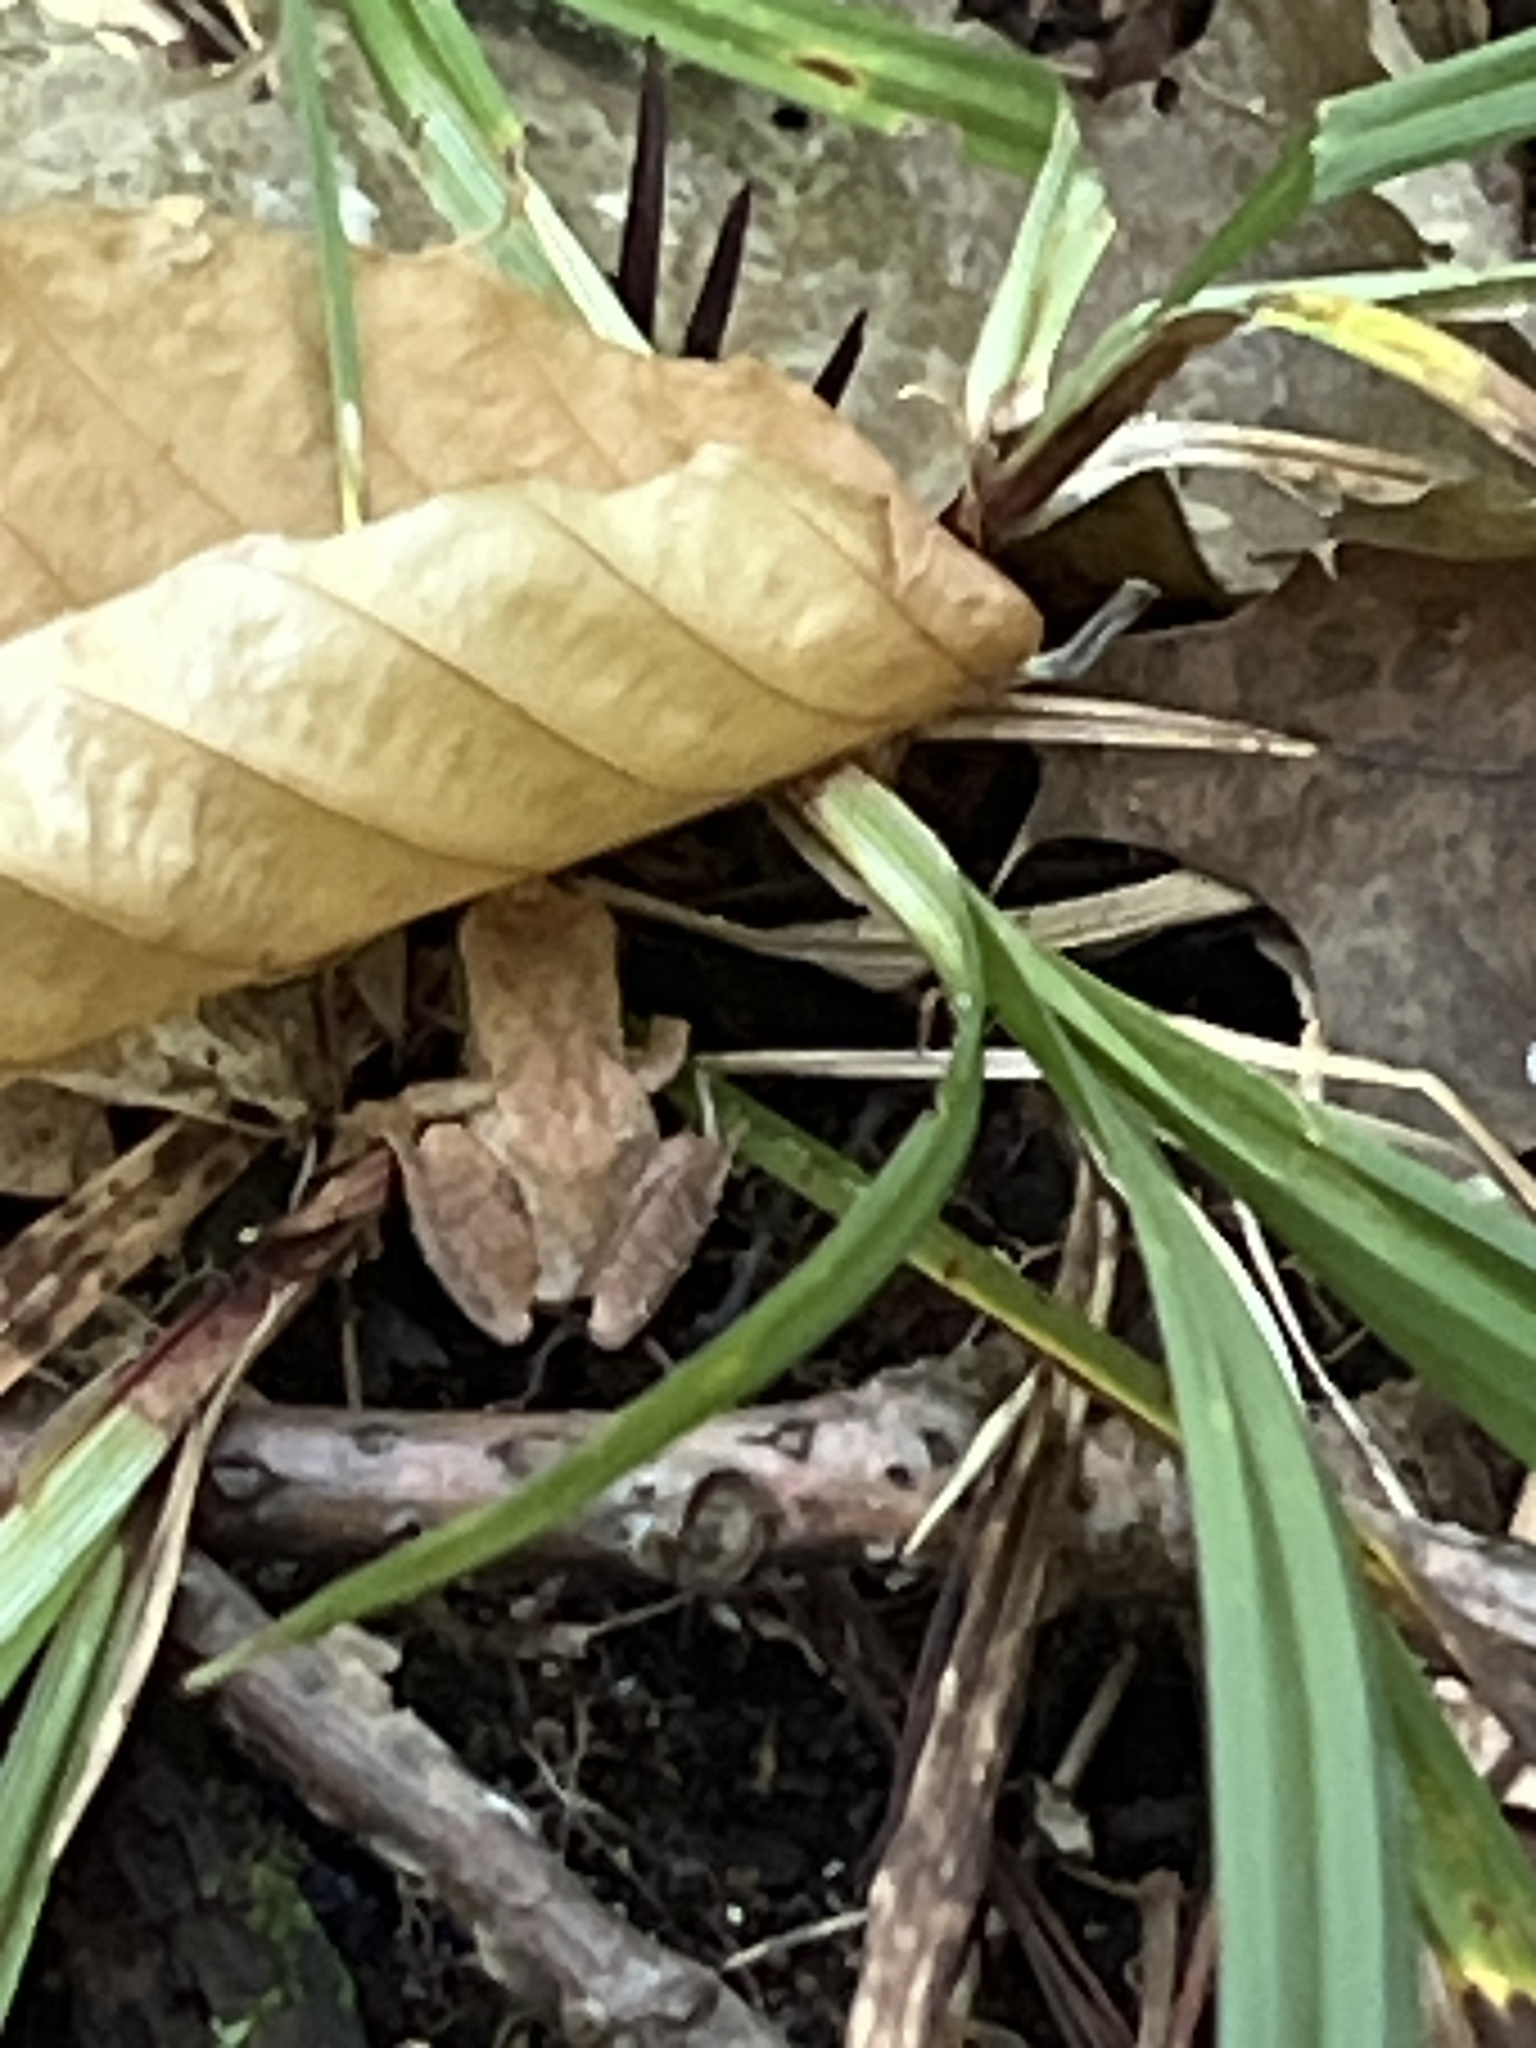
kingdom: Animalia
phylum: Chordata
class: Amphibia
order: Anura
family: Hylidae
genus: Pseudacris
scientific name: Pseudacris crucifer
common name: Spring peeper
